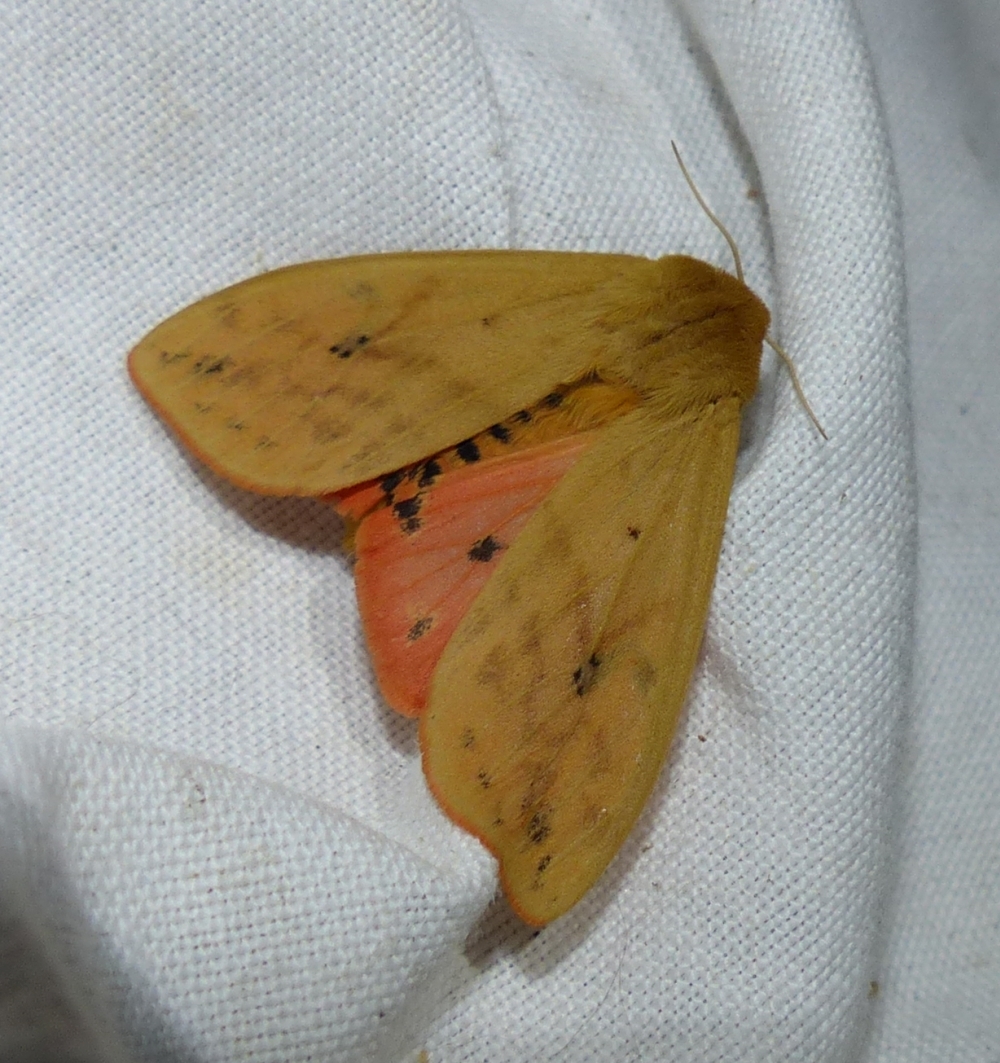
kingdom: Animalia
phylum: Arthropoda
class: Insecta
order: Lepidoptera
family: Erebidae
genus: Pyrrharctia
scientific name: Pyrrharctia isabella
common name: Isabella tiger moth
